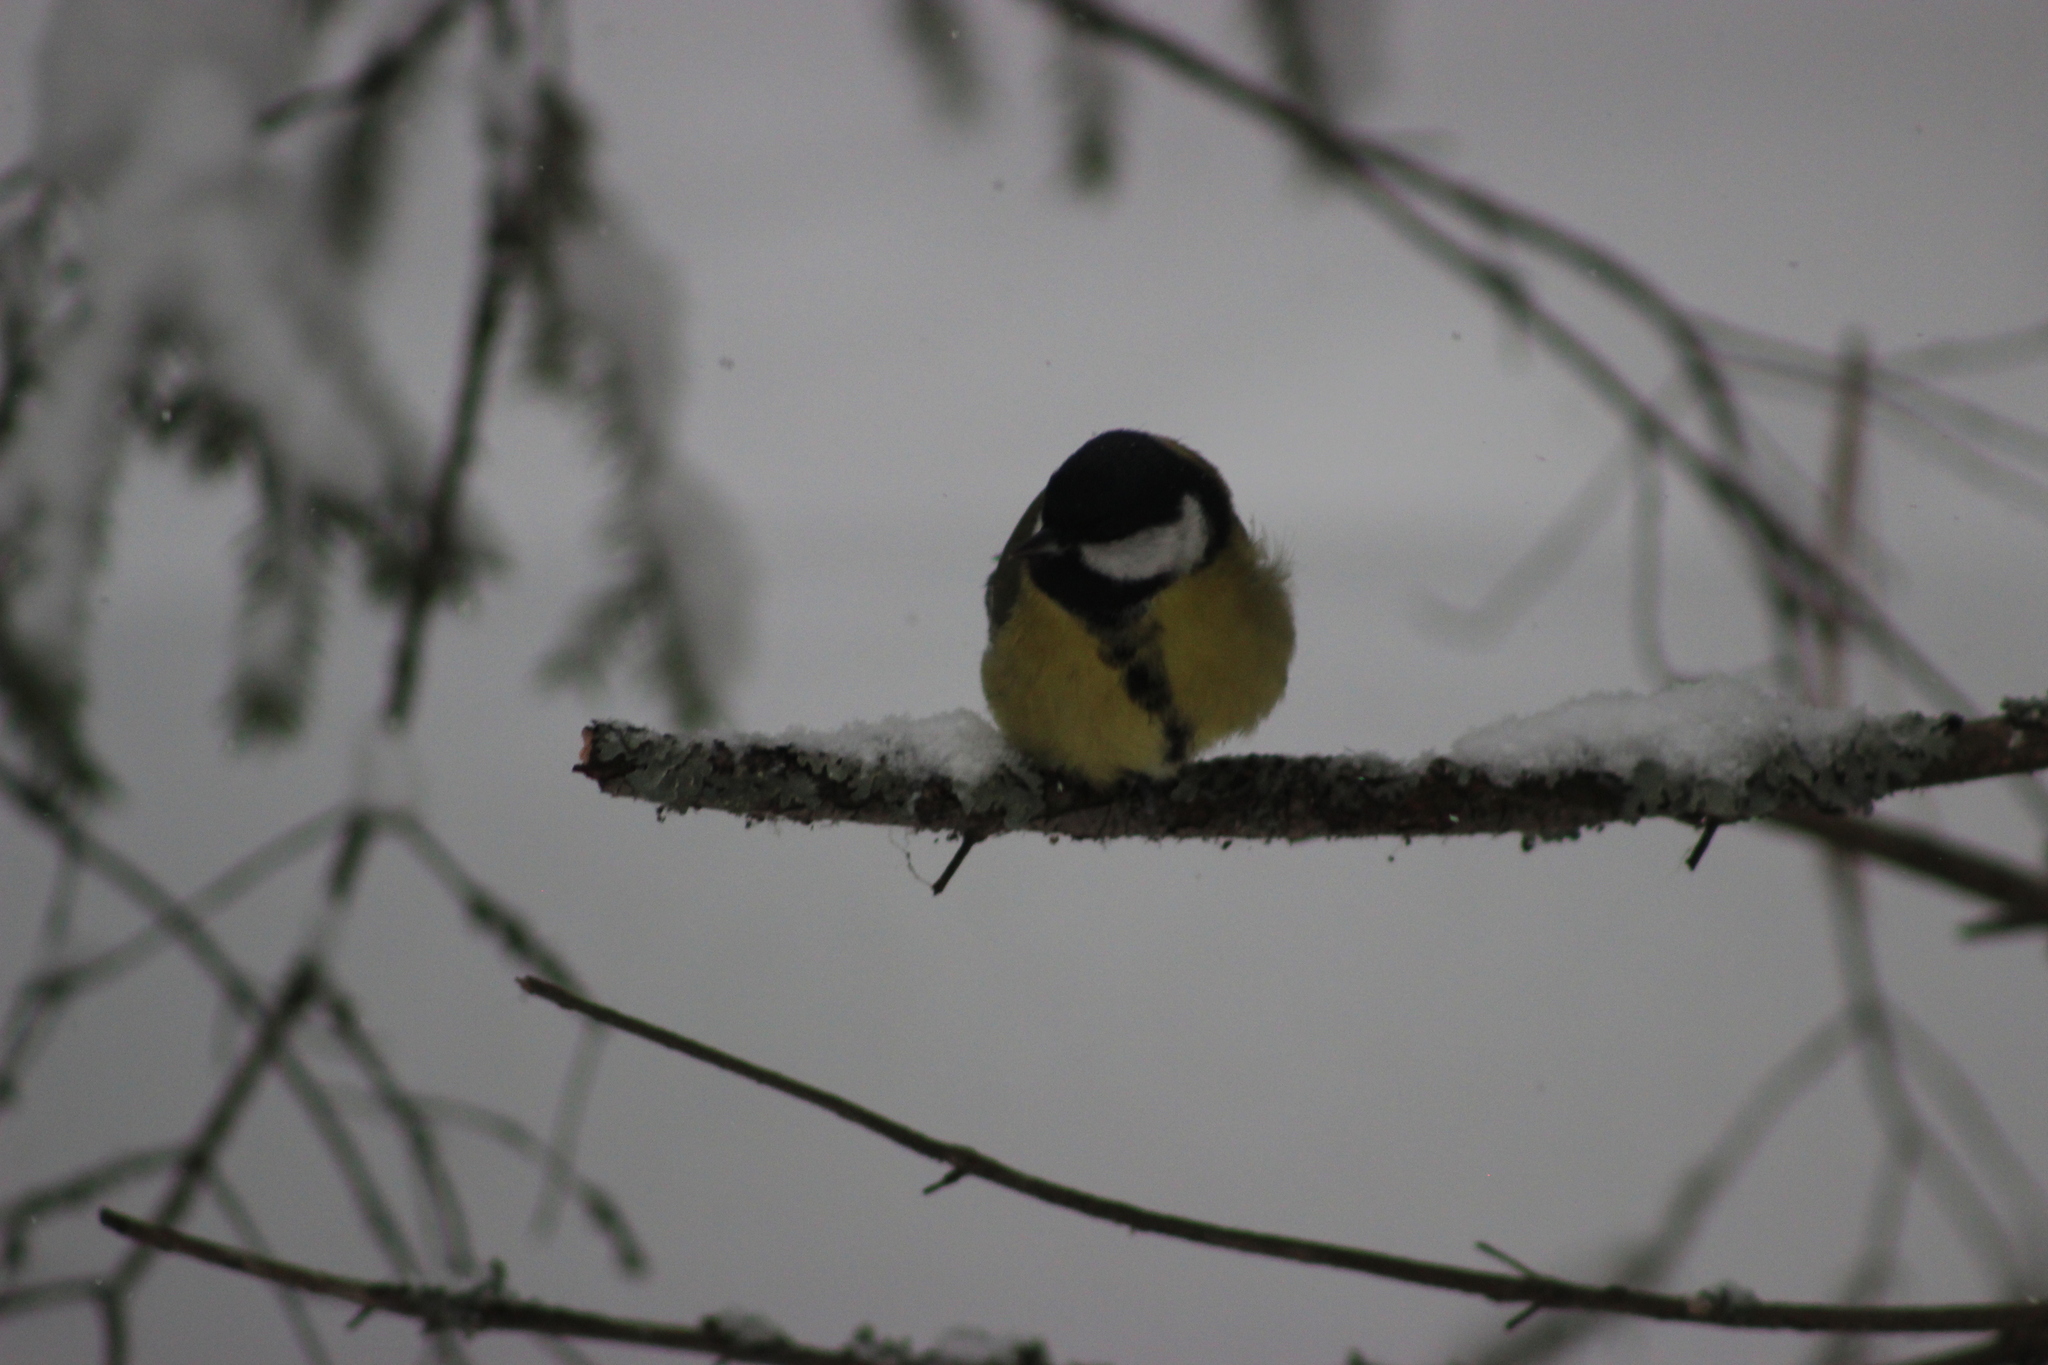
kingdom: Animalia
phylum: Chordata
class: Aves
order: Passeriformes
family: Paridae
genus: Parus
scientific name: Parus major
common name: Great tit
